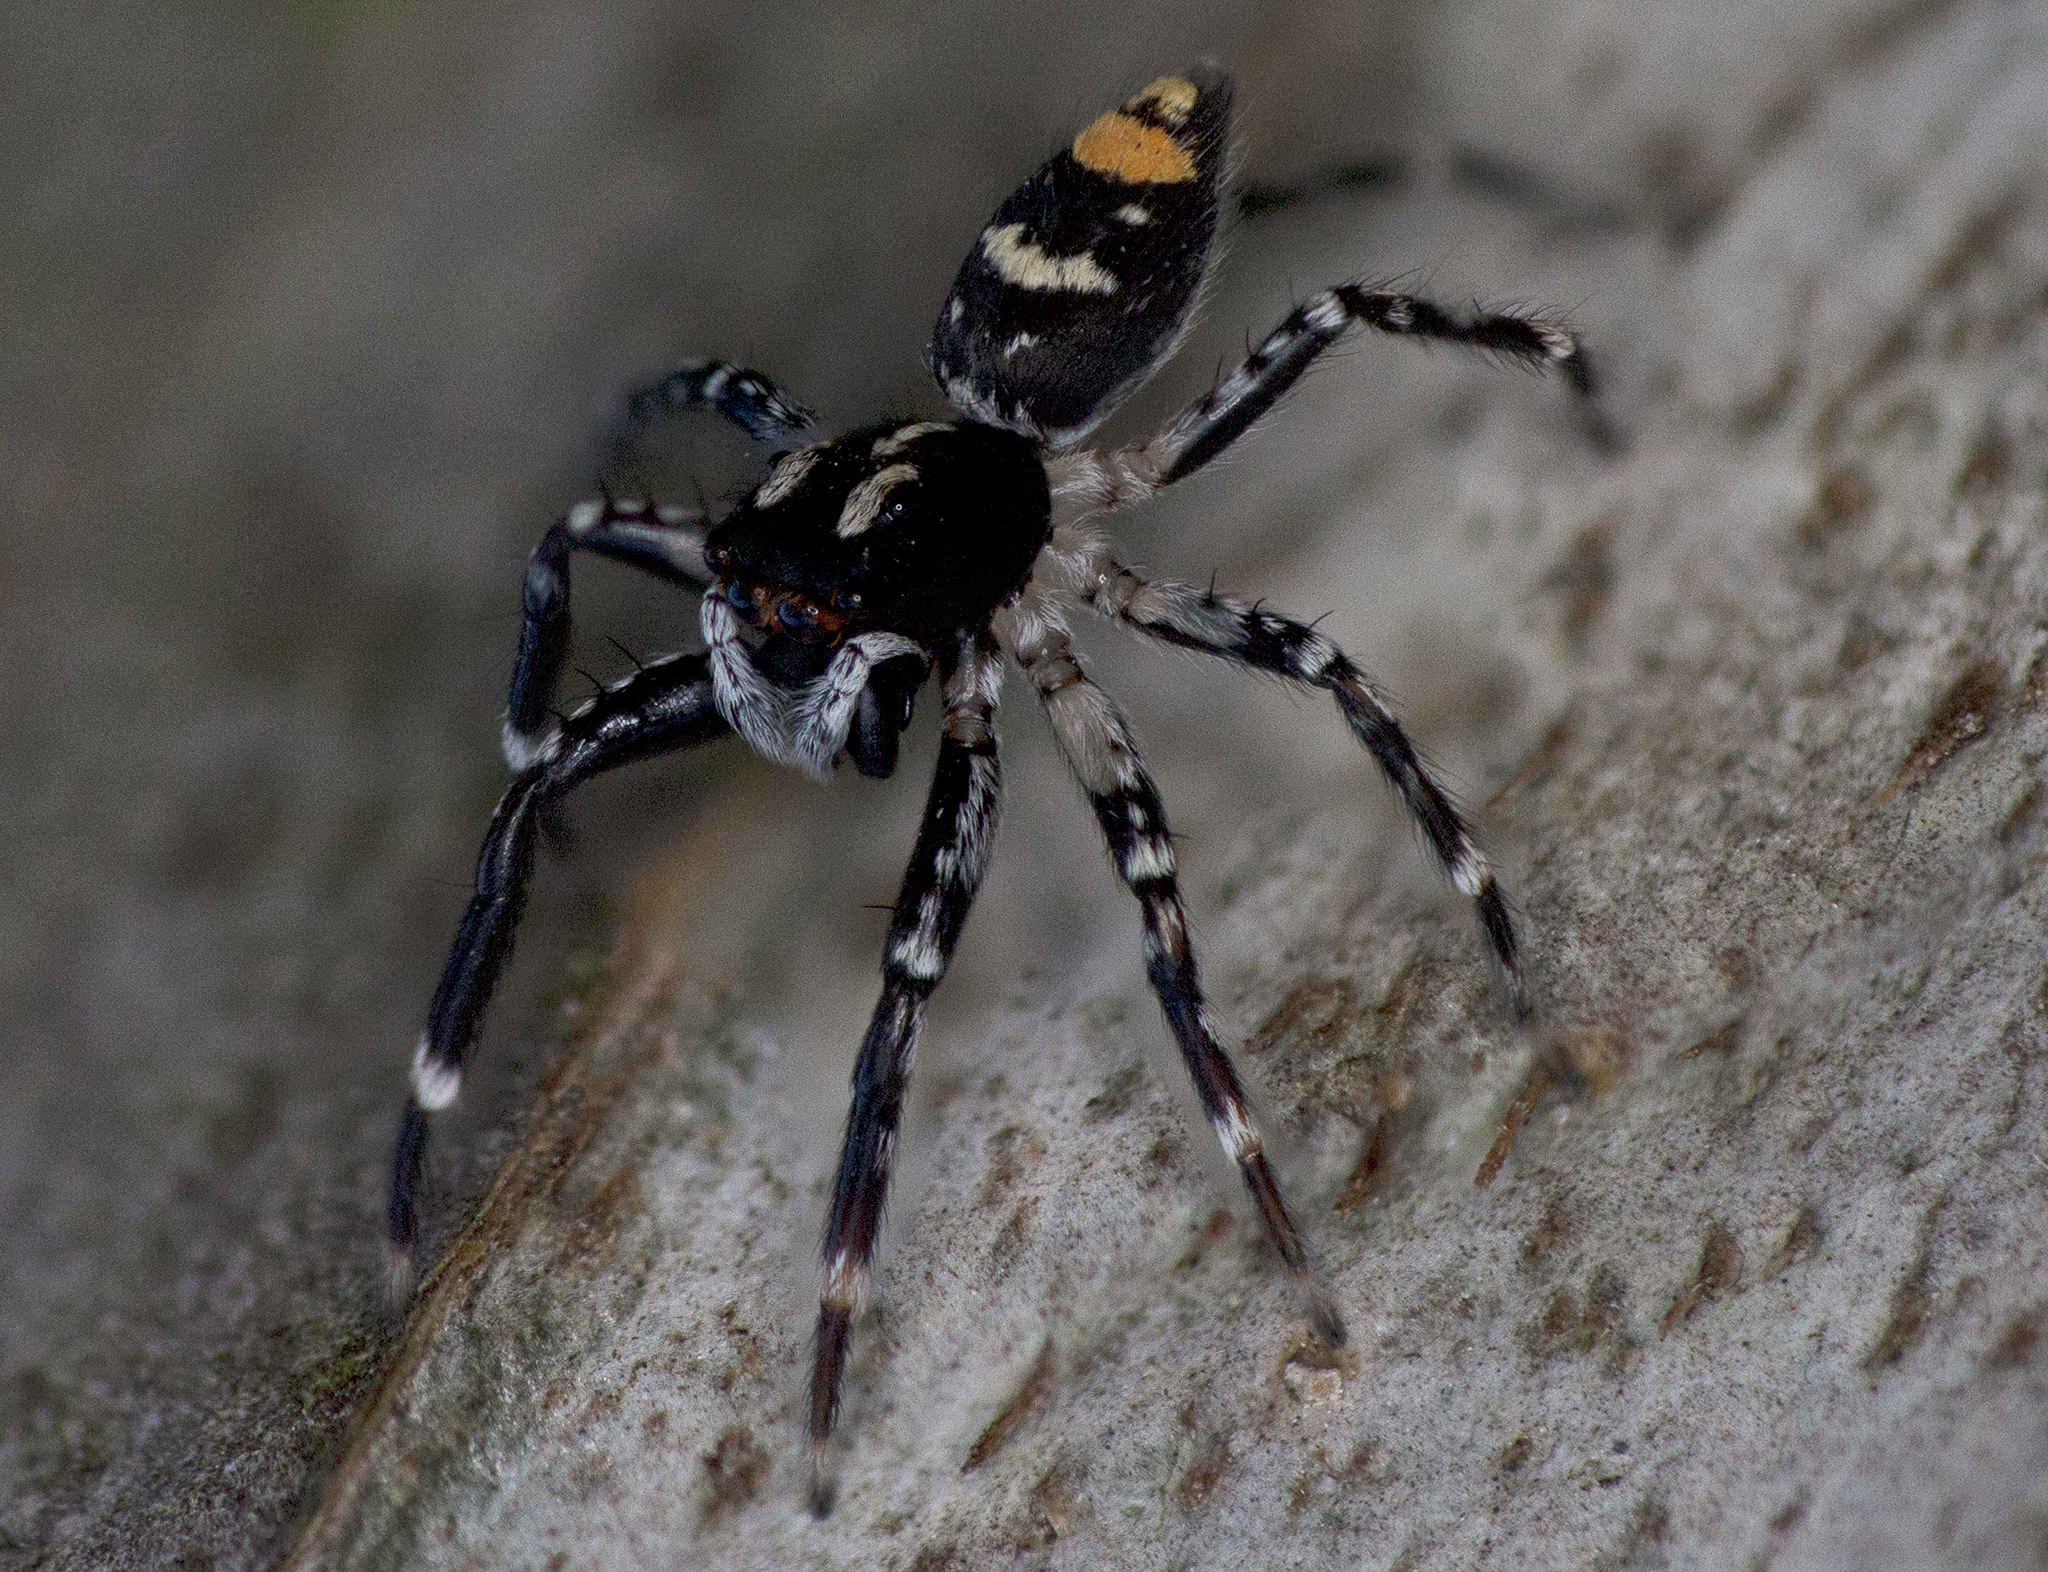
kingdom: Animalia
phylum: Arthropoda
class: Arachnida
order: Araneae
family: Salticidae
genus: Astia
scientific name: Astia
